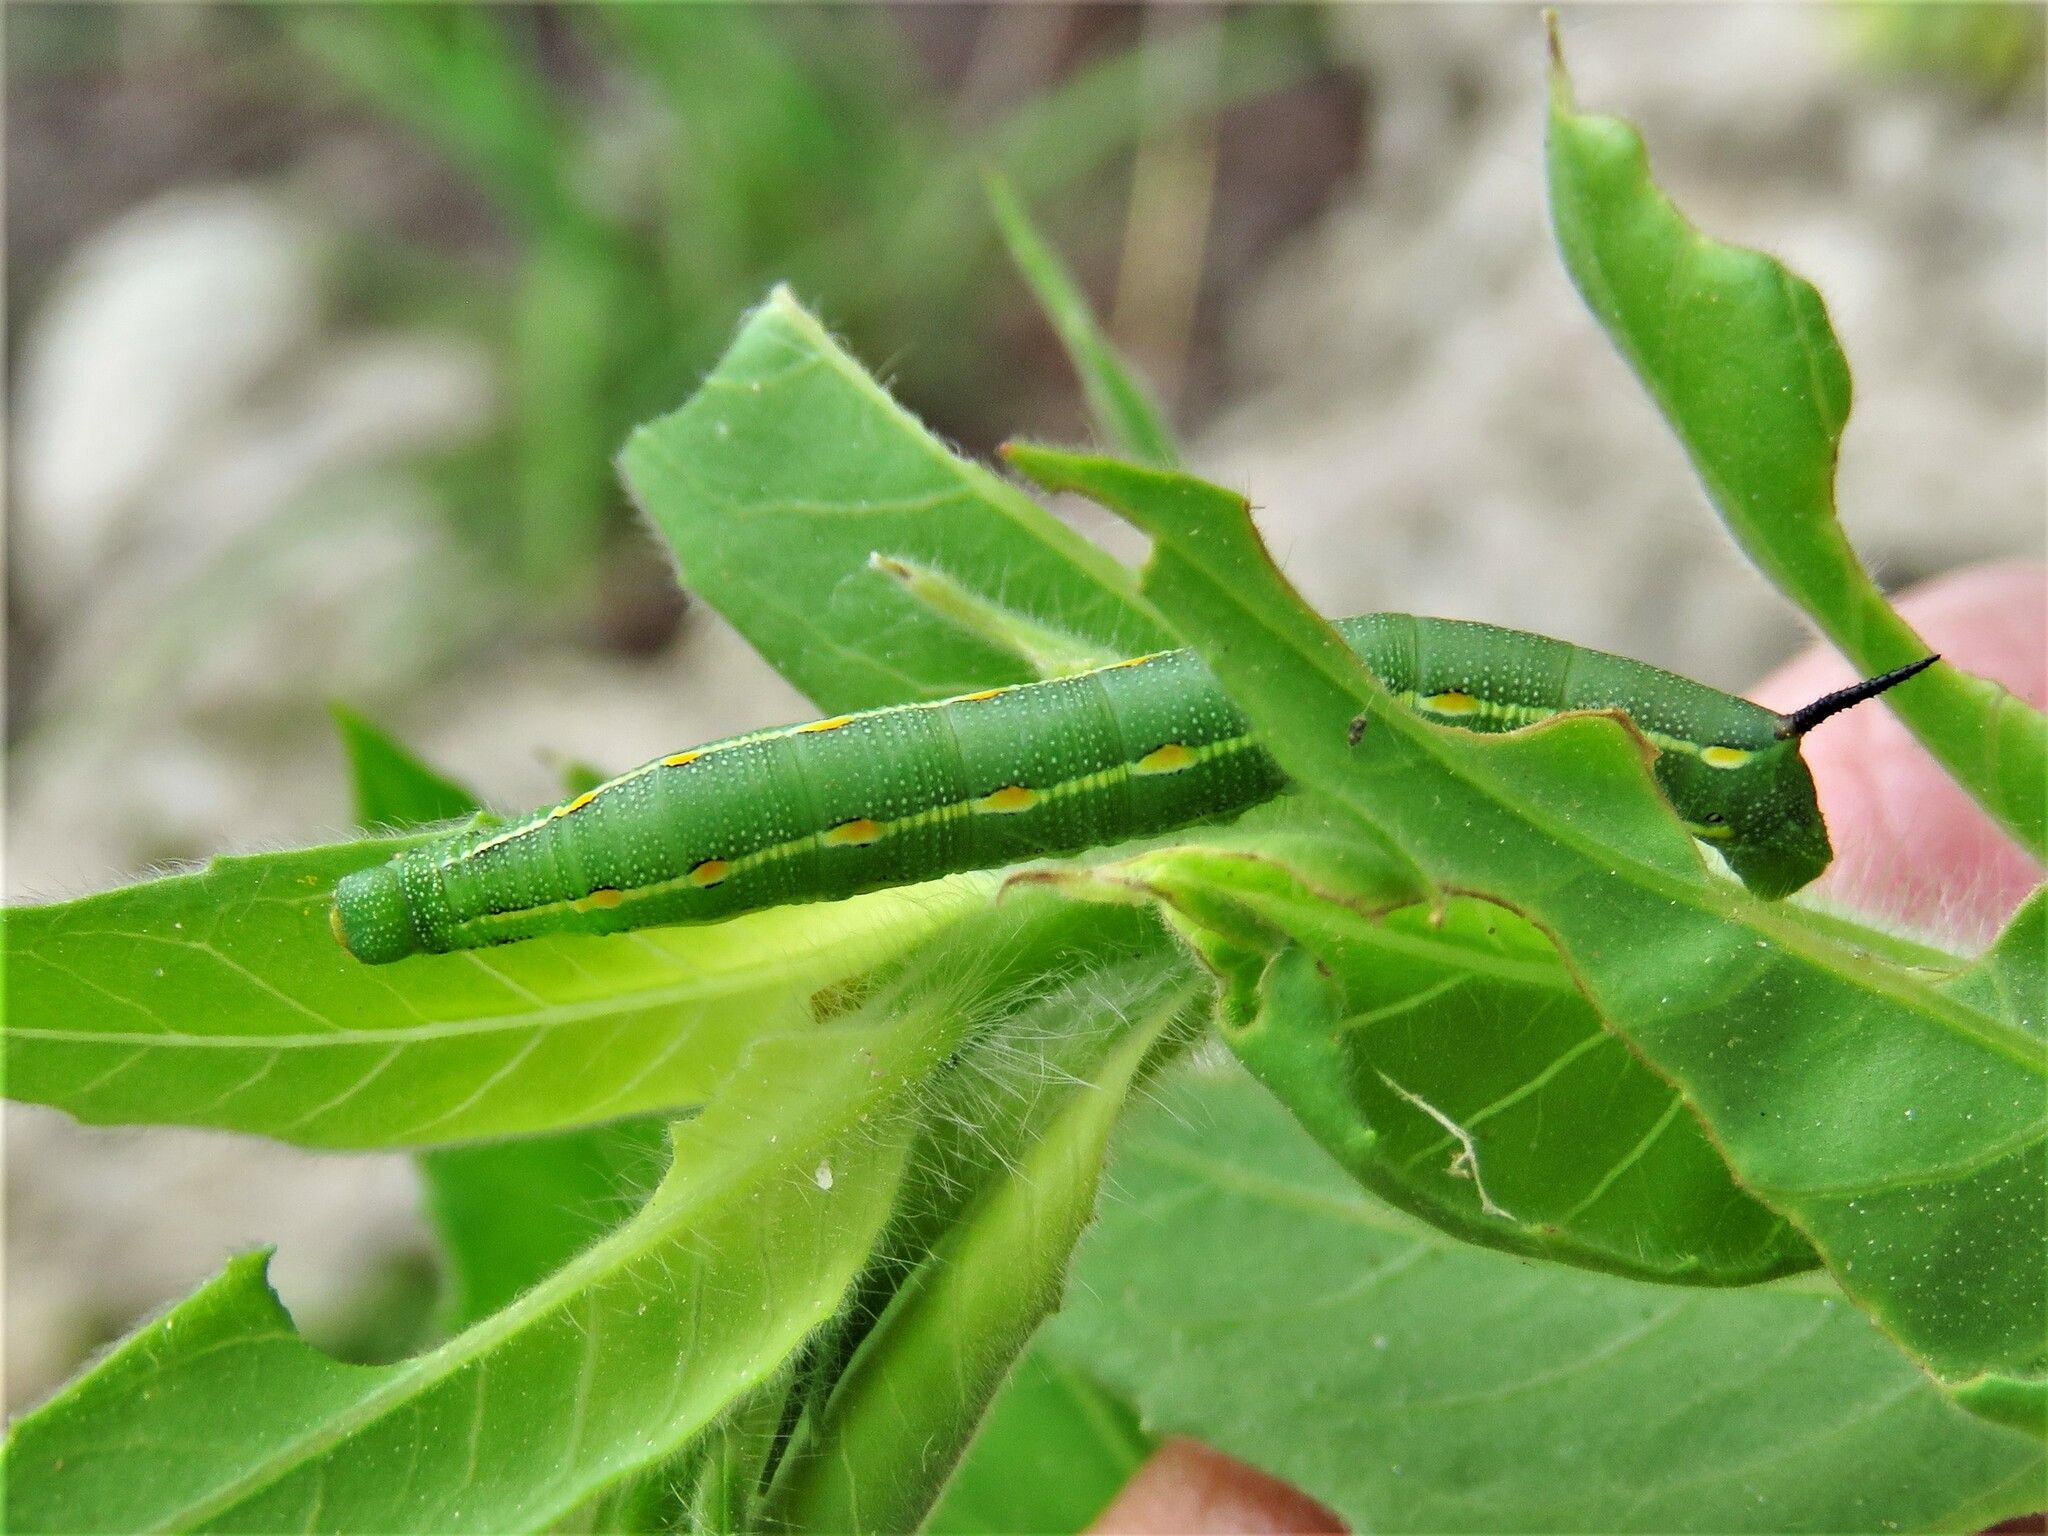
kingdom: Animalia
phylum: Arthropoda
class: Insecta
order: Lepidoptera
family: Sphingidae
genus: Hyles
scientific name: Hyles lineata
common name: White-lined sphinx
